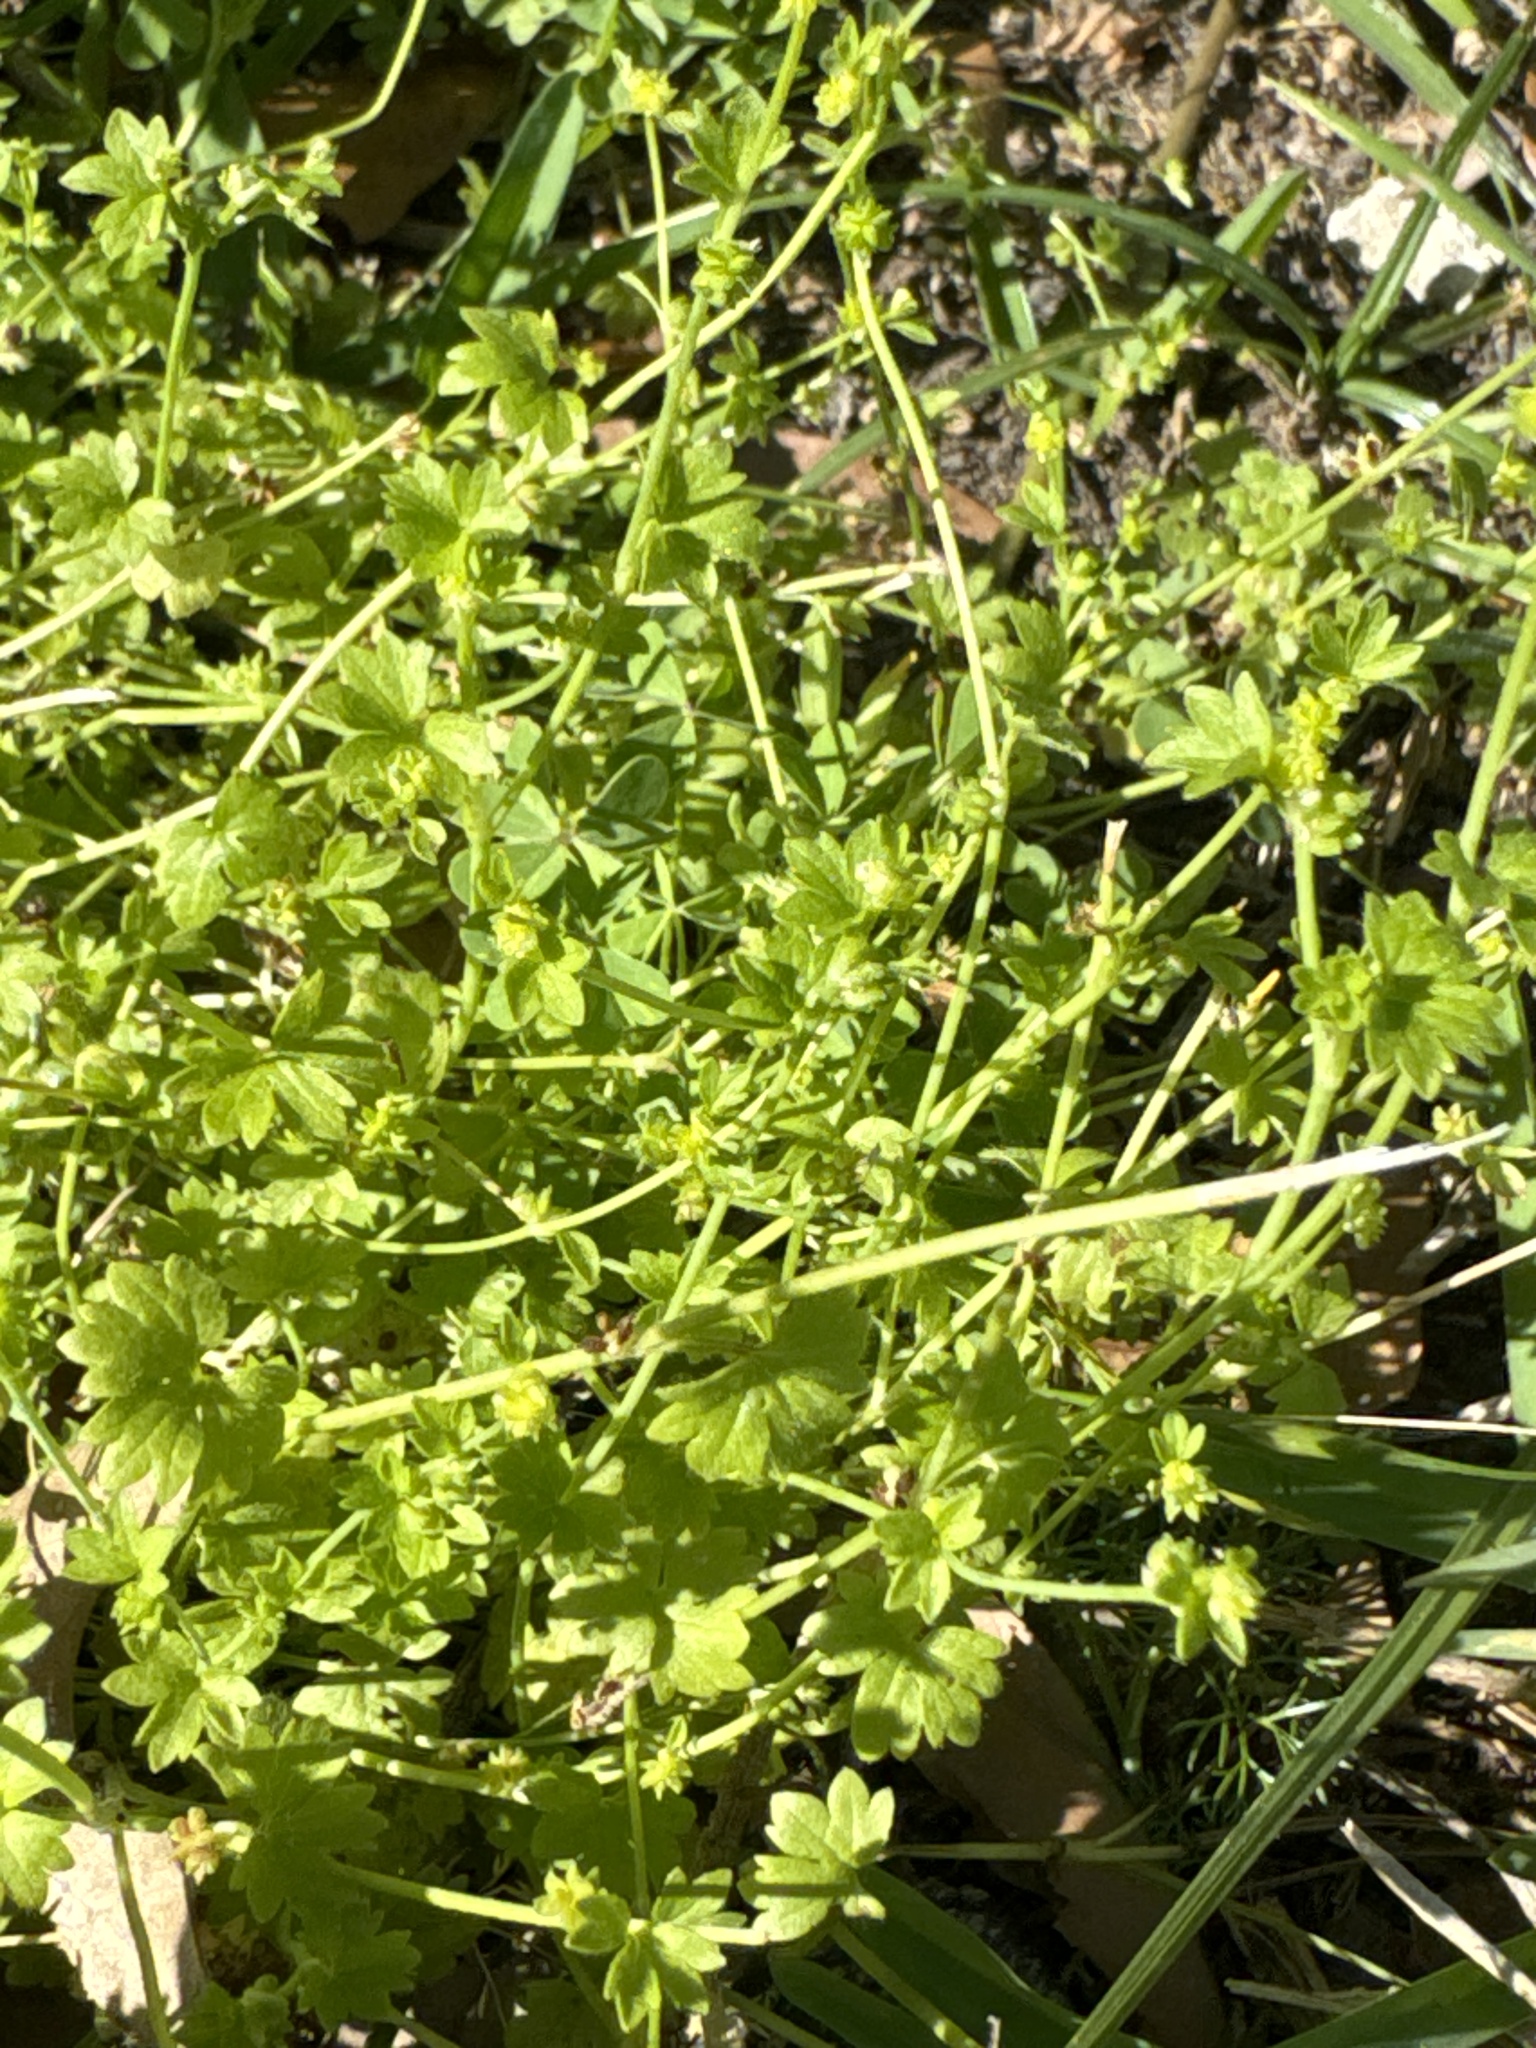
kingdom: Plantae
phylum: Tracheophyta
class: Magnoliopsida
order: Ranunculales
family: Ranunculaceae
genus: Ranunculus
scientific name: Ranunculus platensis
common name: Prairie buttercup
